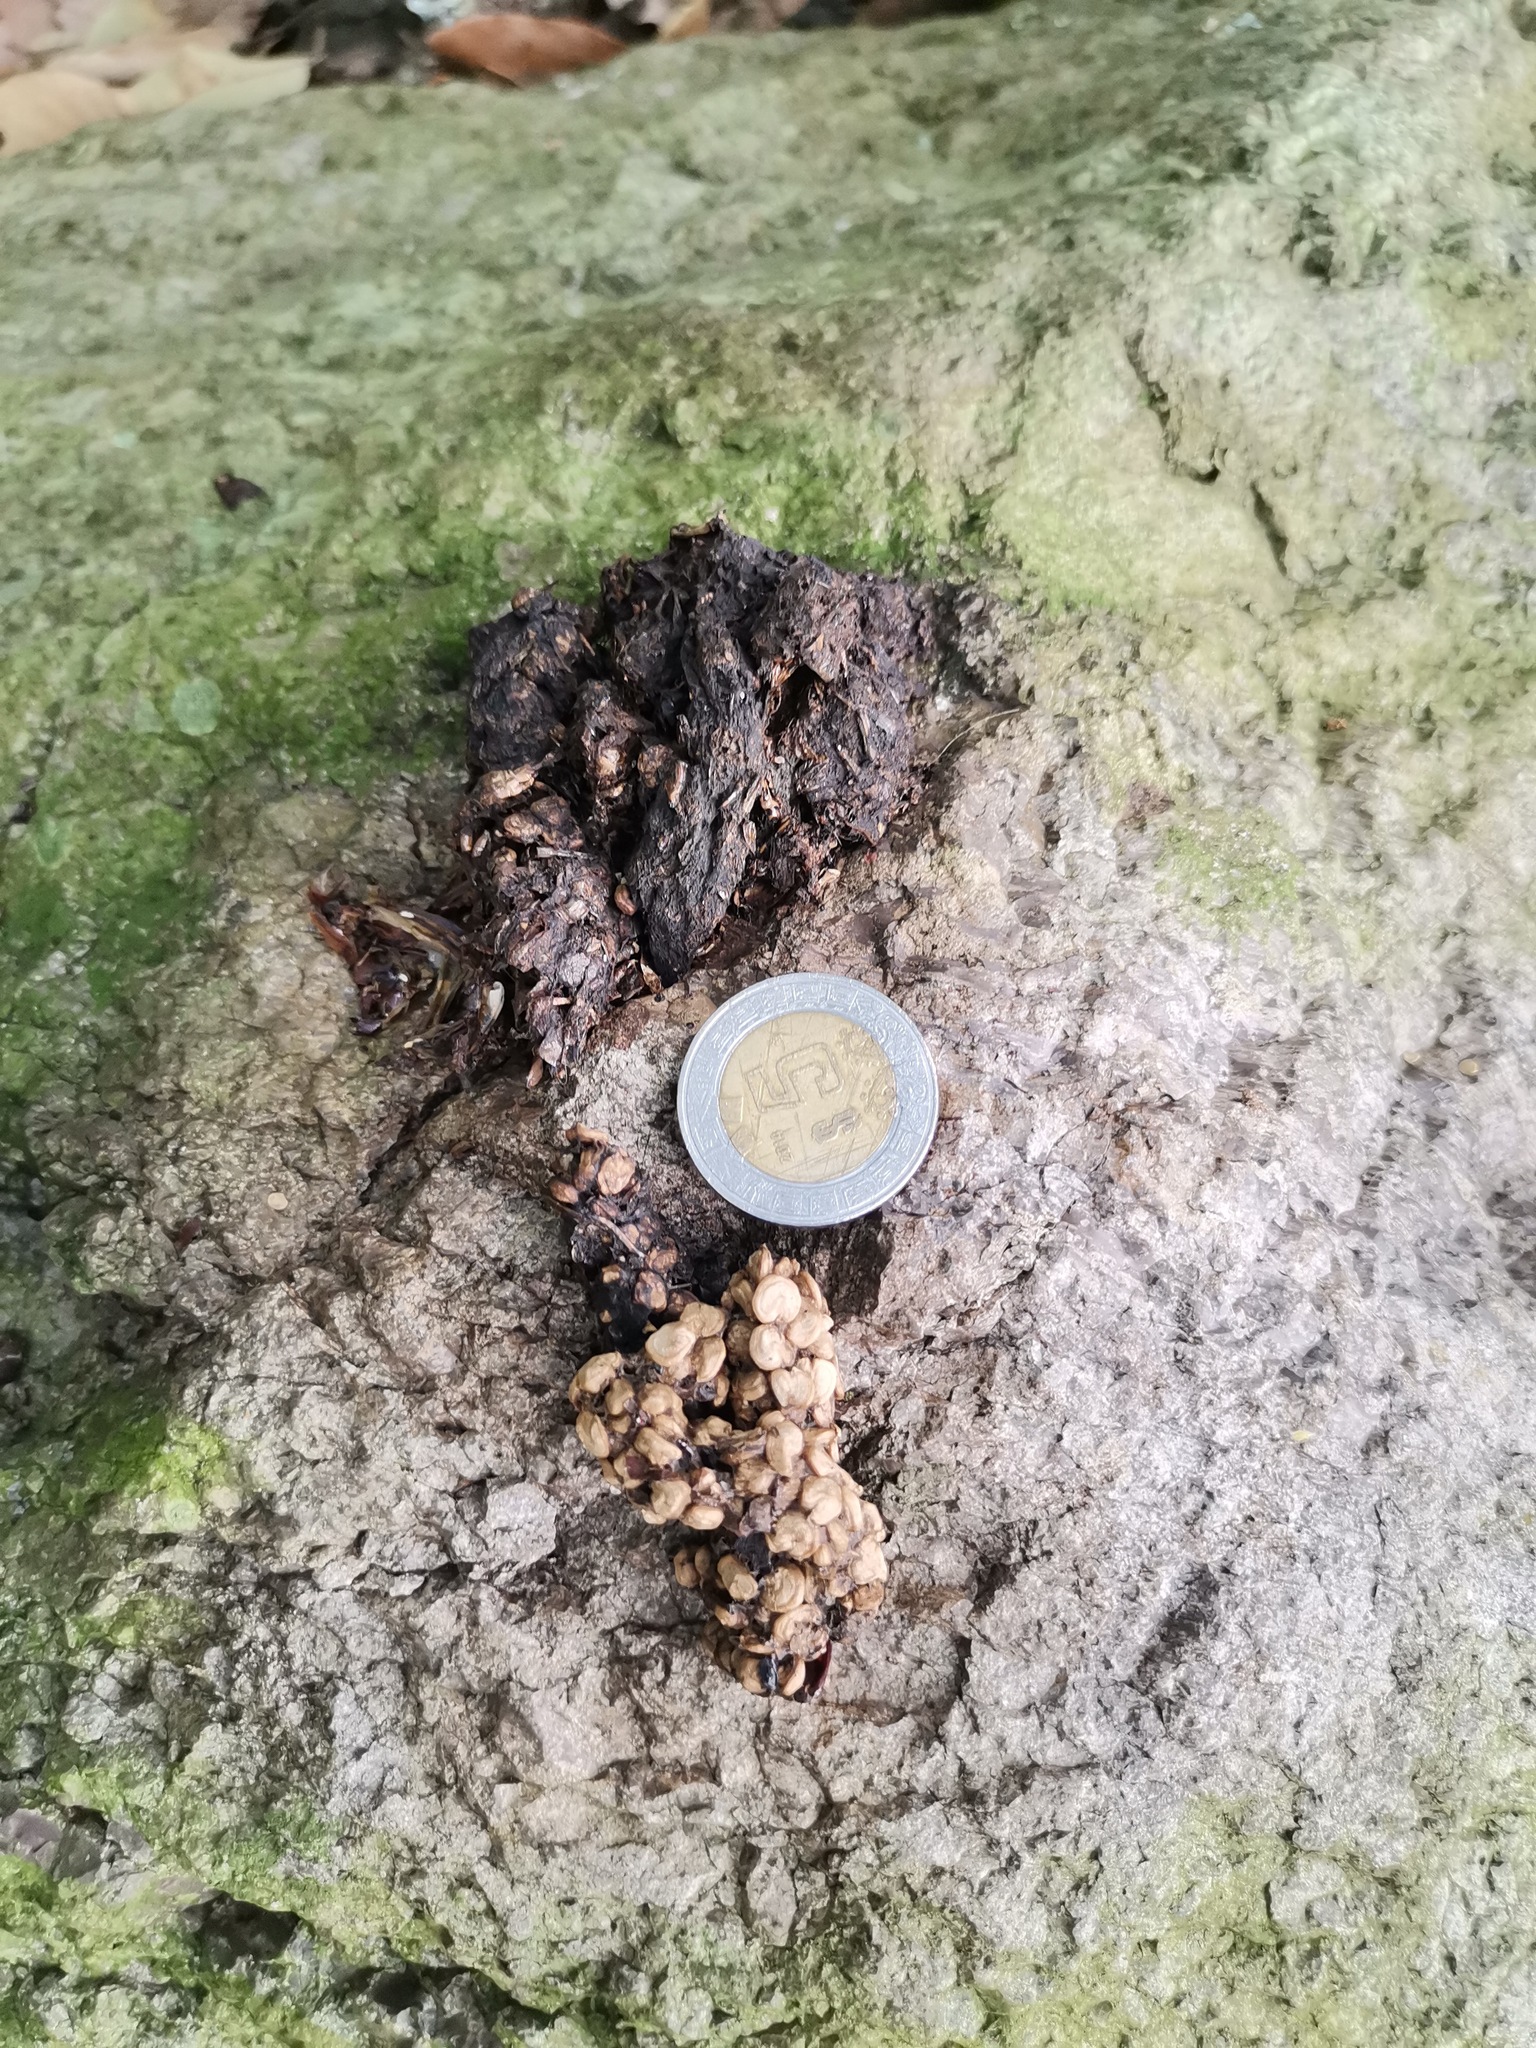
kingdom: Animalia
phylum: Chordata
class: Mammalia
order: Carnivora
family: Procyonidae
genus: Bassariscus
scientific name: Bassariscus astutus
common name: Ringtail
